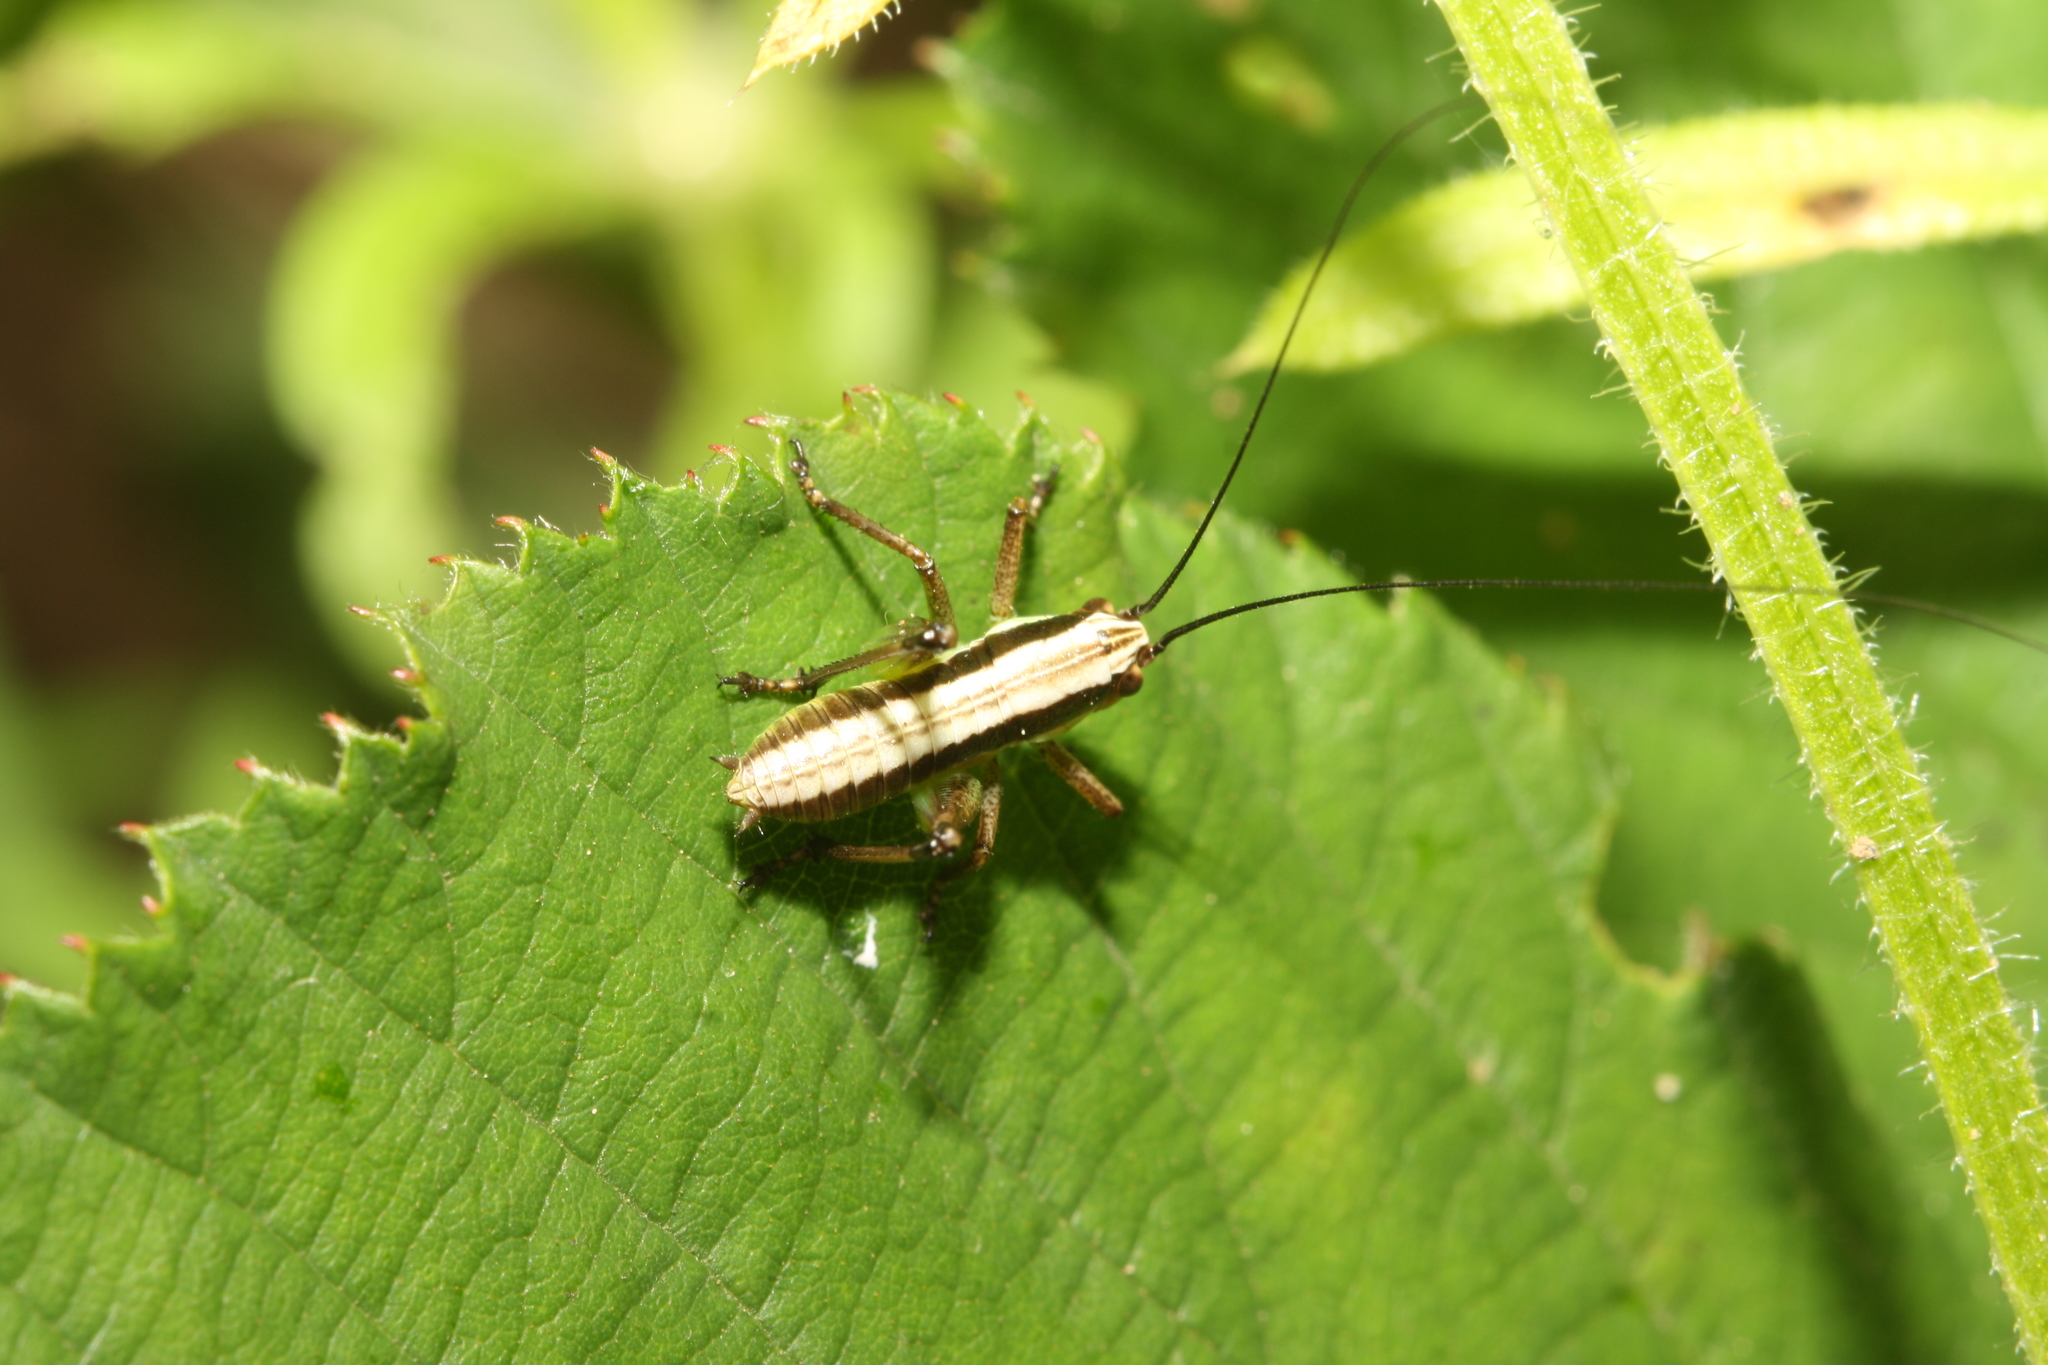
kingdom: Animalia
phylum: Arthropoda
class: Insecta
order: Orthoptera
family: Tettigoniidae
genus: Pachytrachis
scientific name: Pachytrachis gracilis
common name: Graceful bush-cricket
